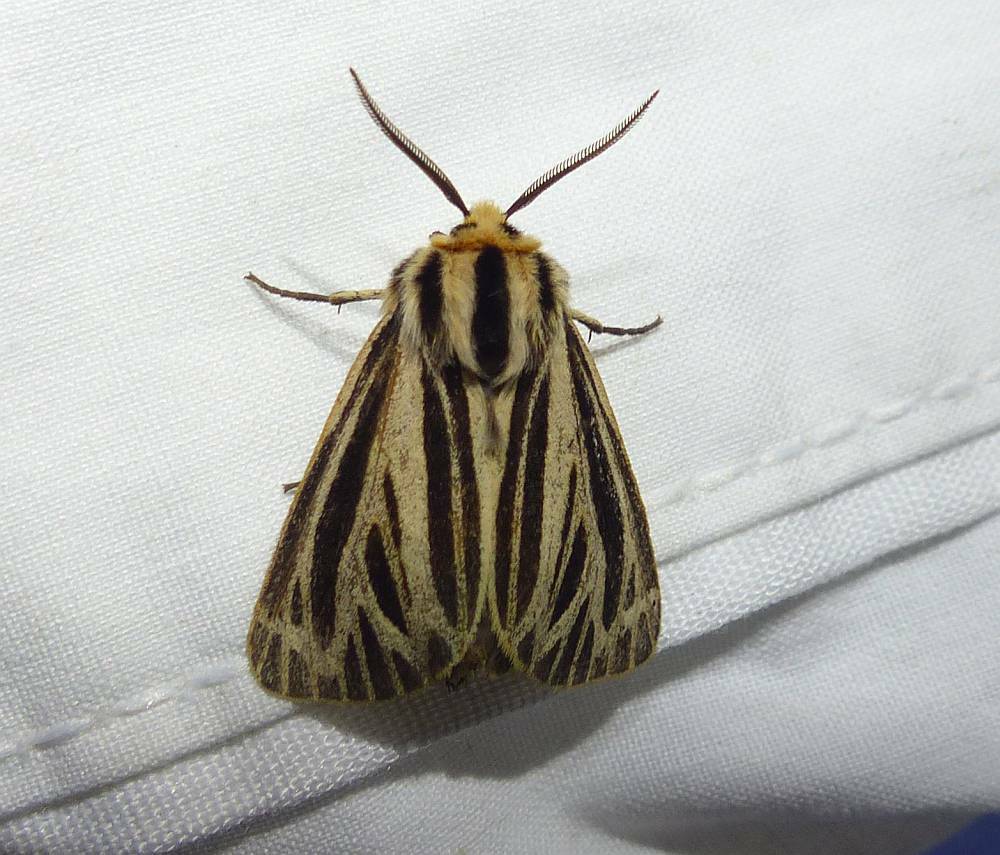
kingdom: Animalia
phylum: Arthropoda
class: Insecta
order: Lepidoptera
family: Erebidae
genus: Grammia
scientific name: Grammia virguncula
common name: Little tiger moth
